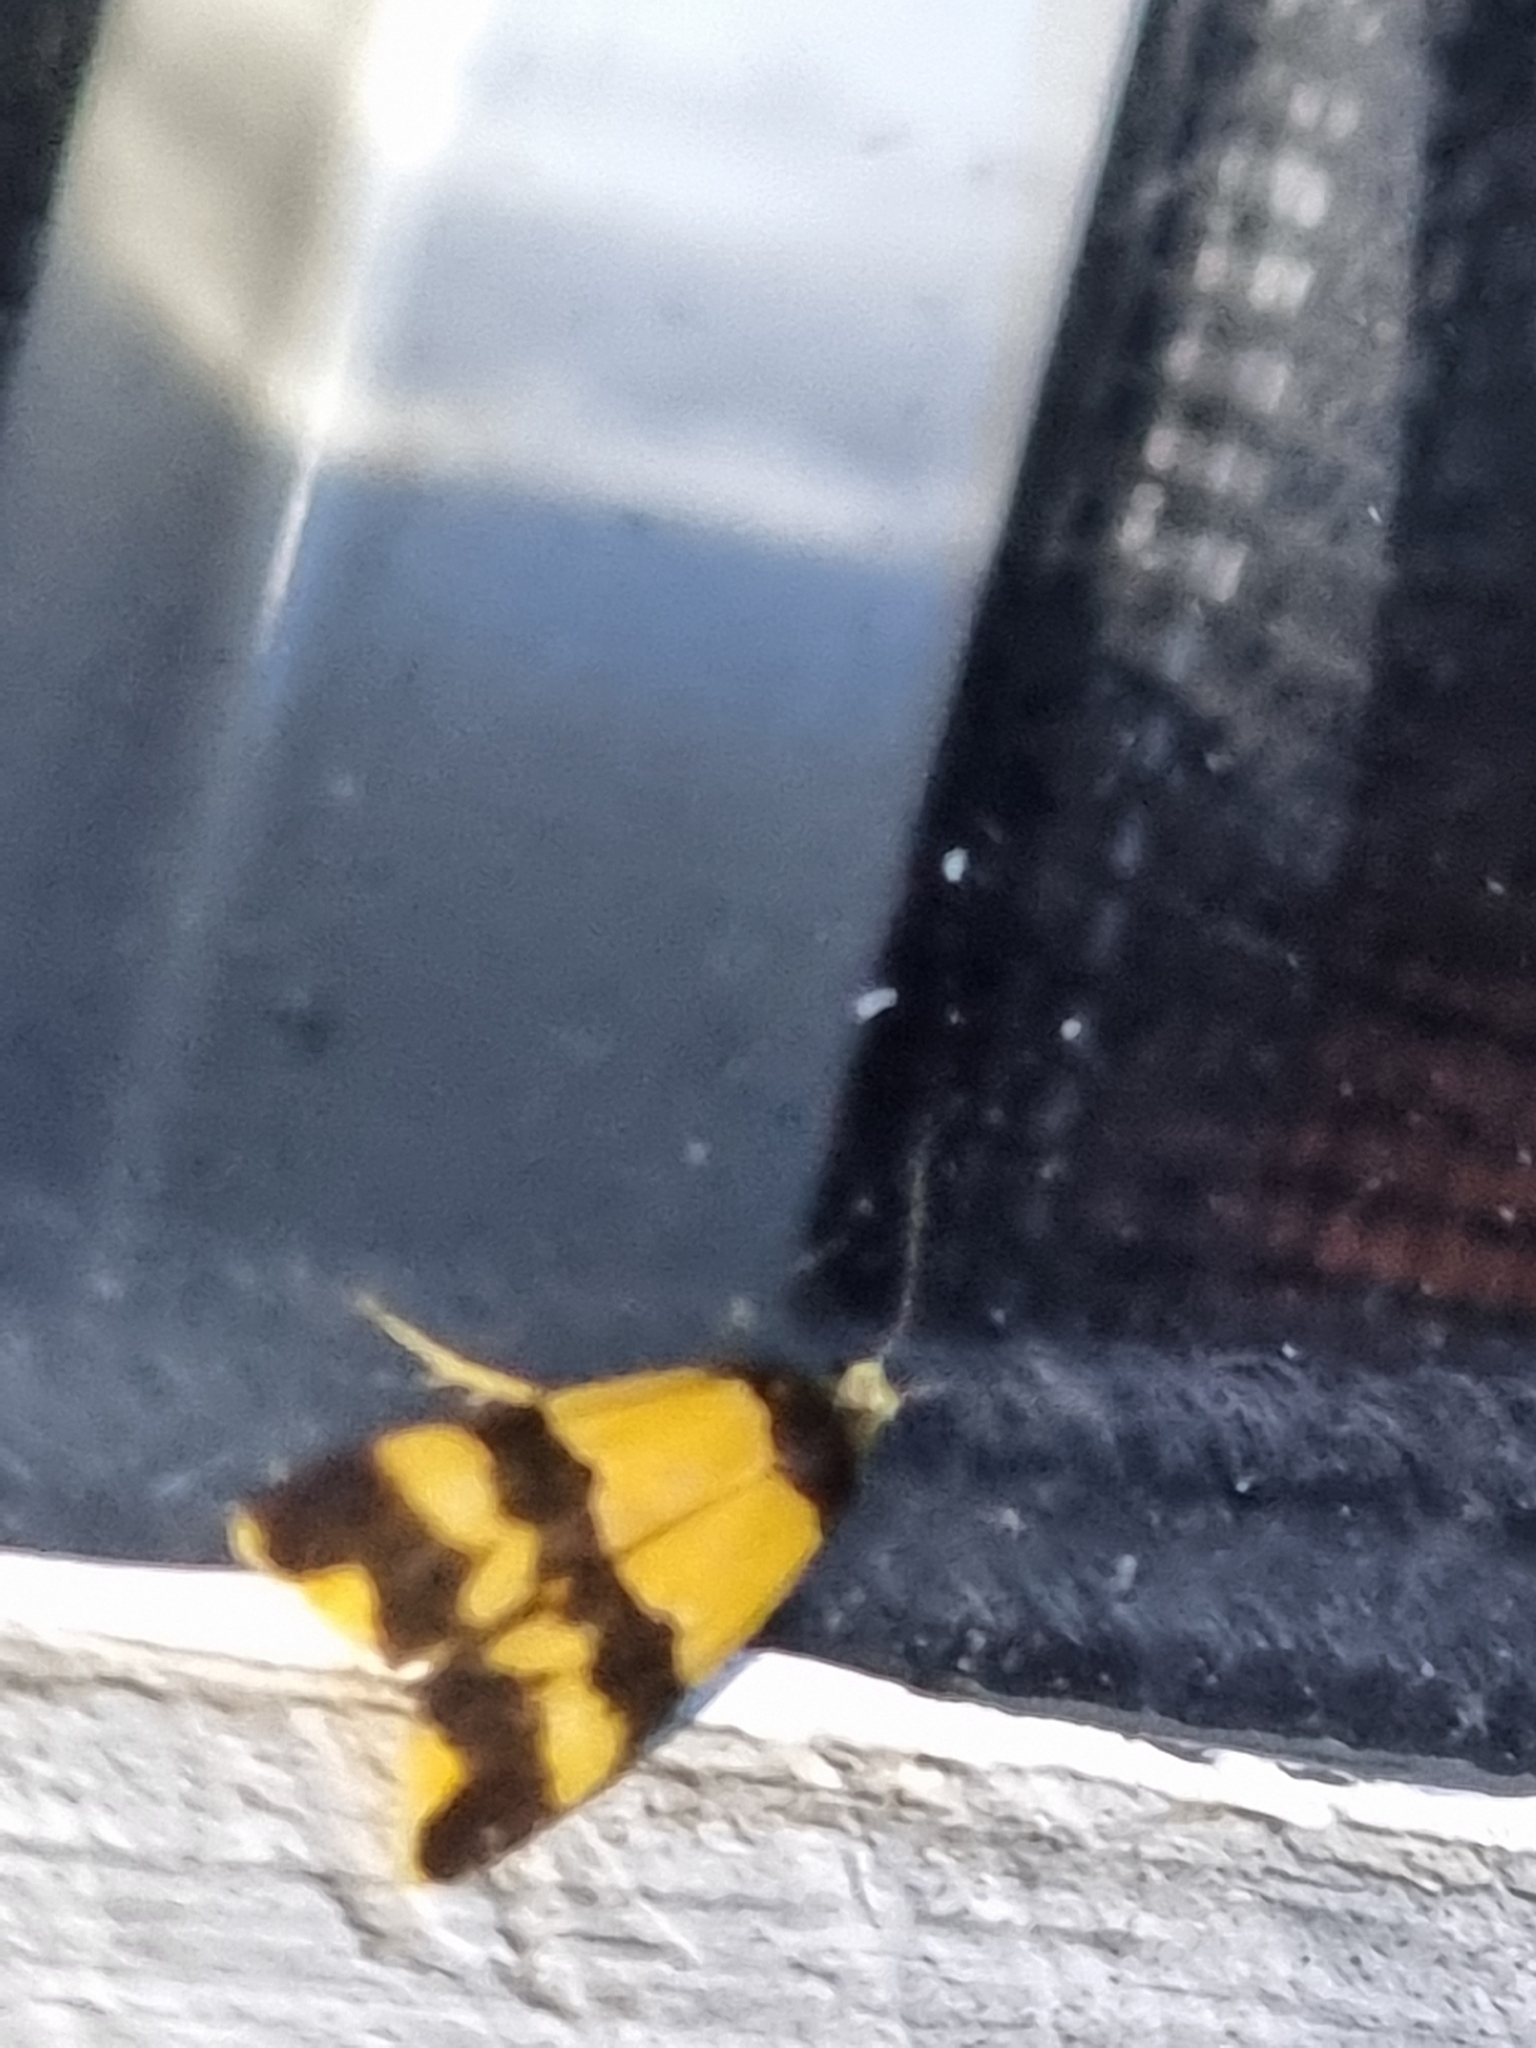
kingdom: Animalia
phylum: Arthropoda
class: Insecta
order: Lepidoptera
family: Erebidae
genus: Stenoscaptia
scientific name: Stenoscaptia venusta
